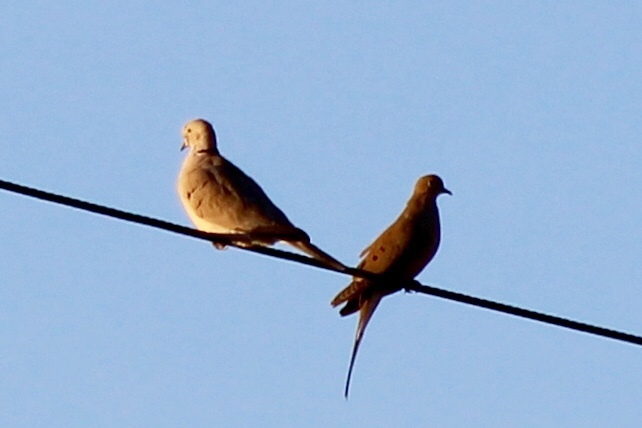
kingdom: Animalia
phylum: Chordata
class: Aves
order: Columbiformes
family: Columbidae
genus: Zenaida
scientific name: Zenaida macroura
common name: Mourning dove
